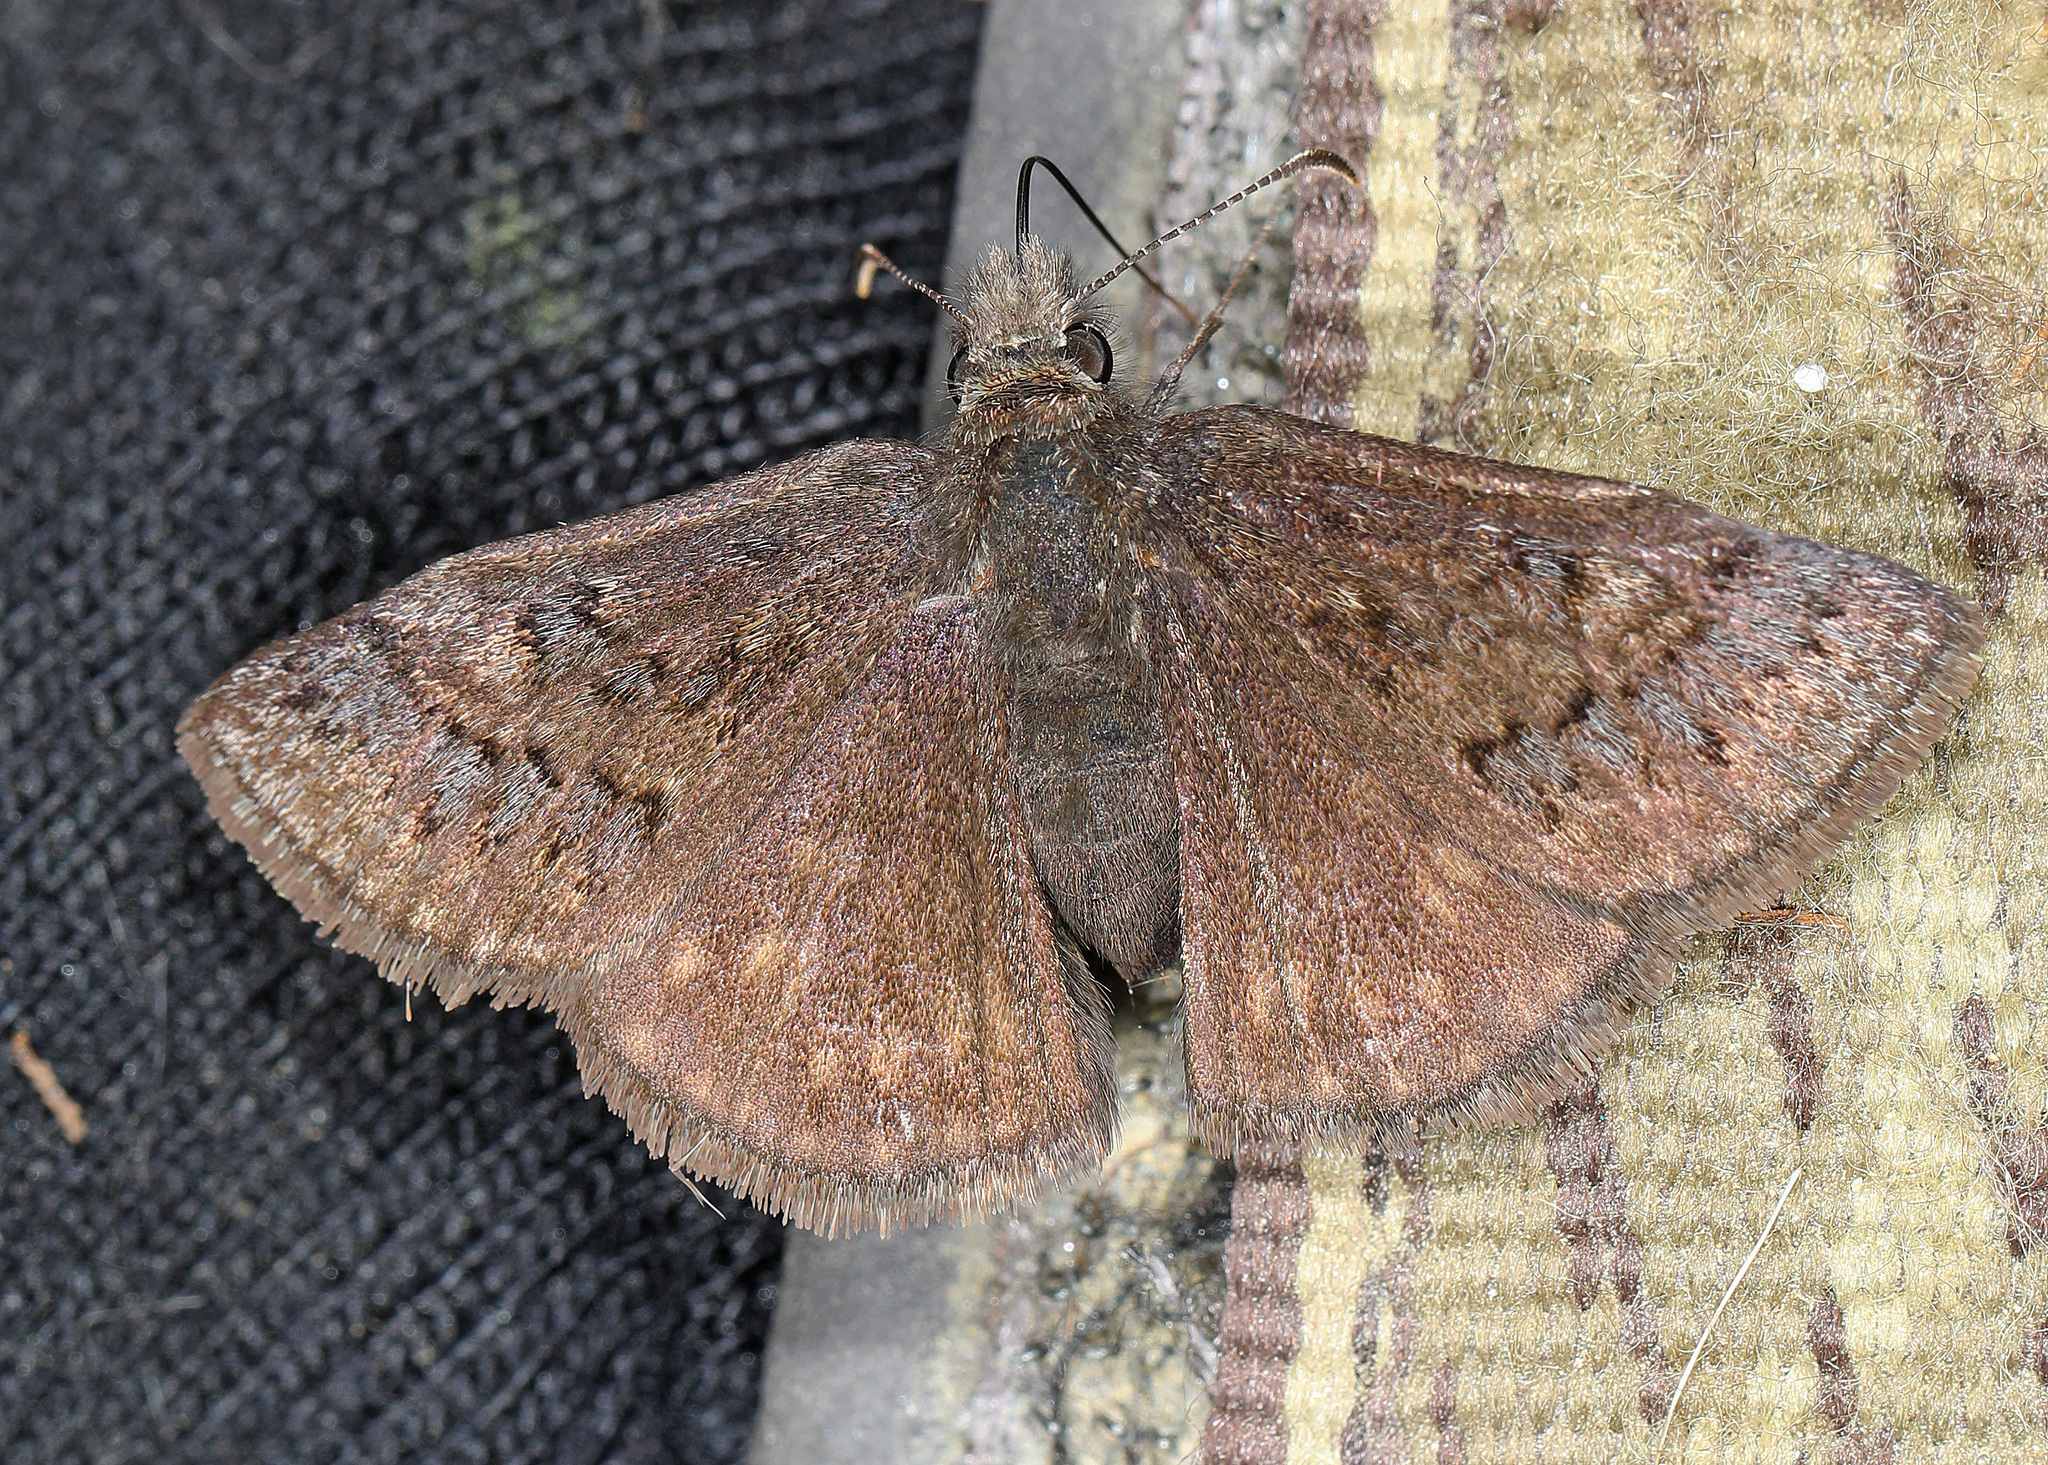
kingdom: Animalia
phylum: Arthropoda
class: Insecta
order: Lepidoptera
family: Hesperiidae
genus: Erynnis
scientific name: Erynnis brizo
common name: Sleepy duskywing
